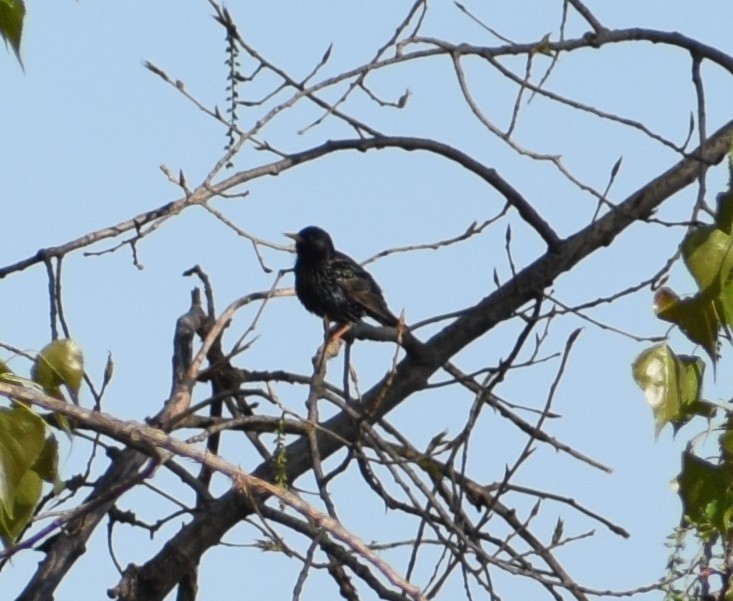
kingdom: Animalia
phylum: Chordata
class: Aves
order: Passeriformes
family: Sturnidae
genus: Sturnus
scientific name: Sturnus vulgaris
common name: Common starling
